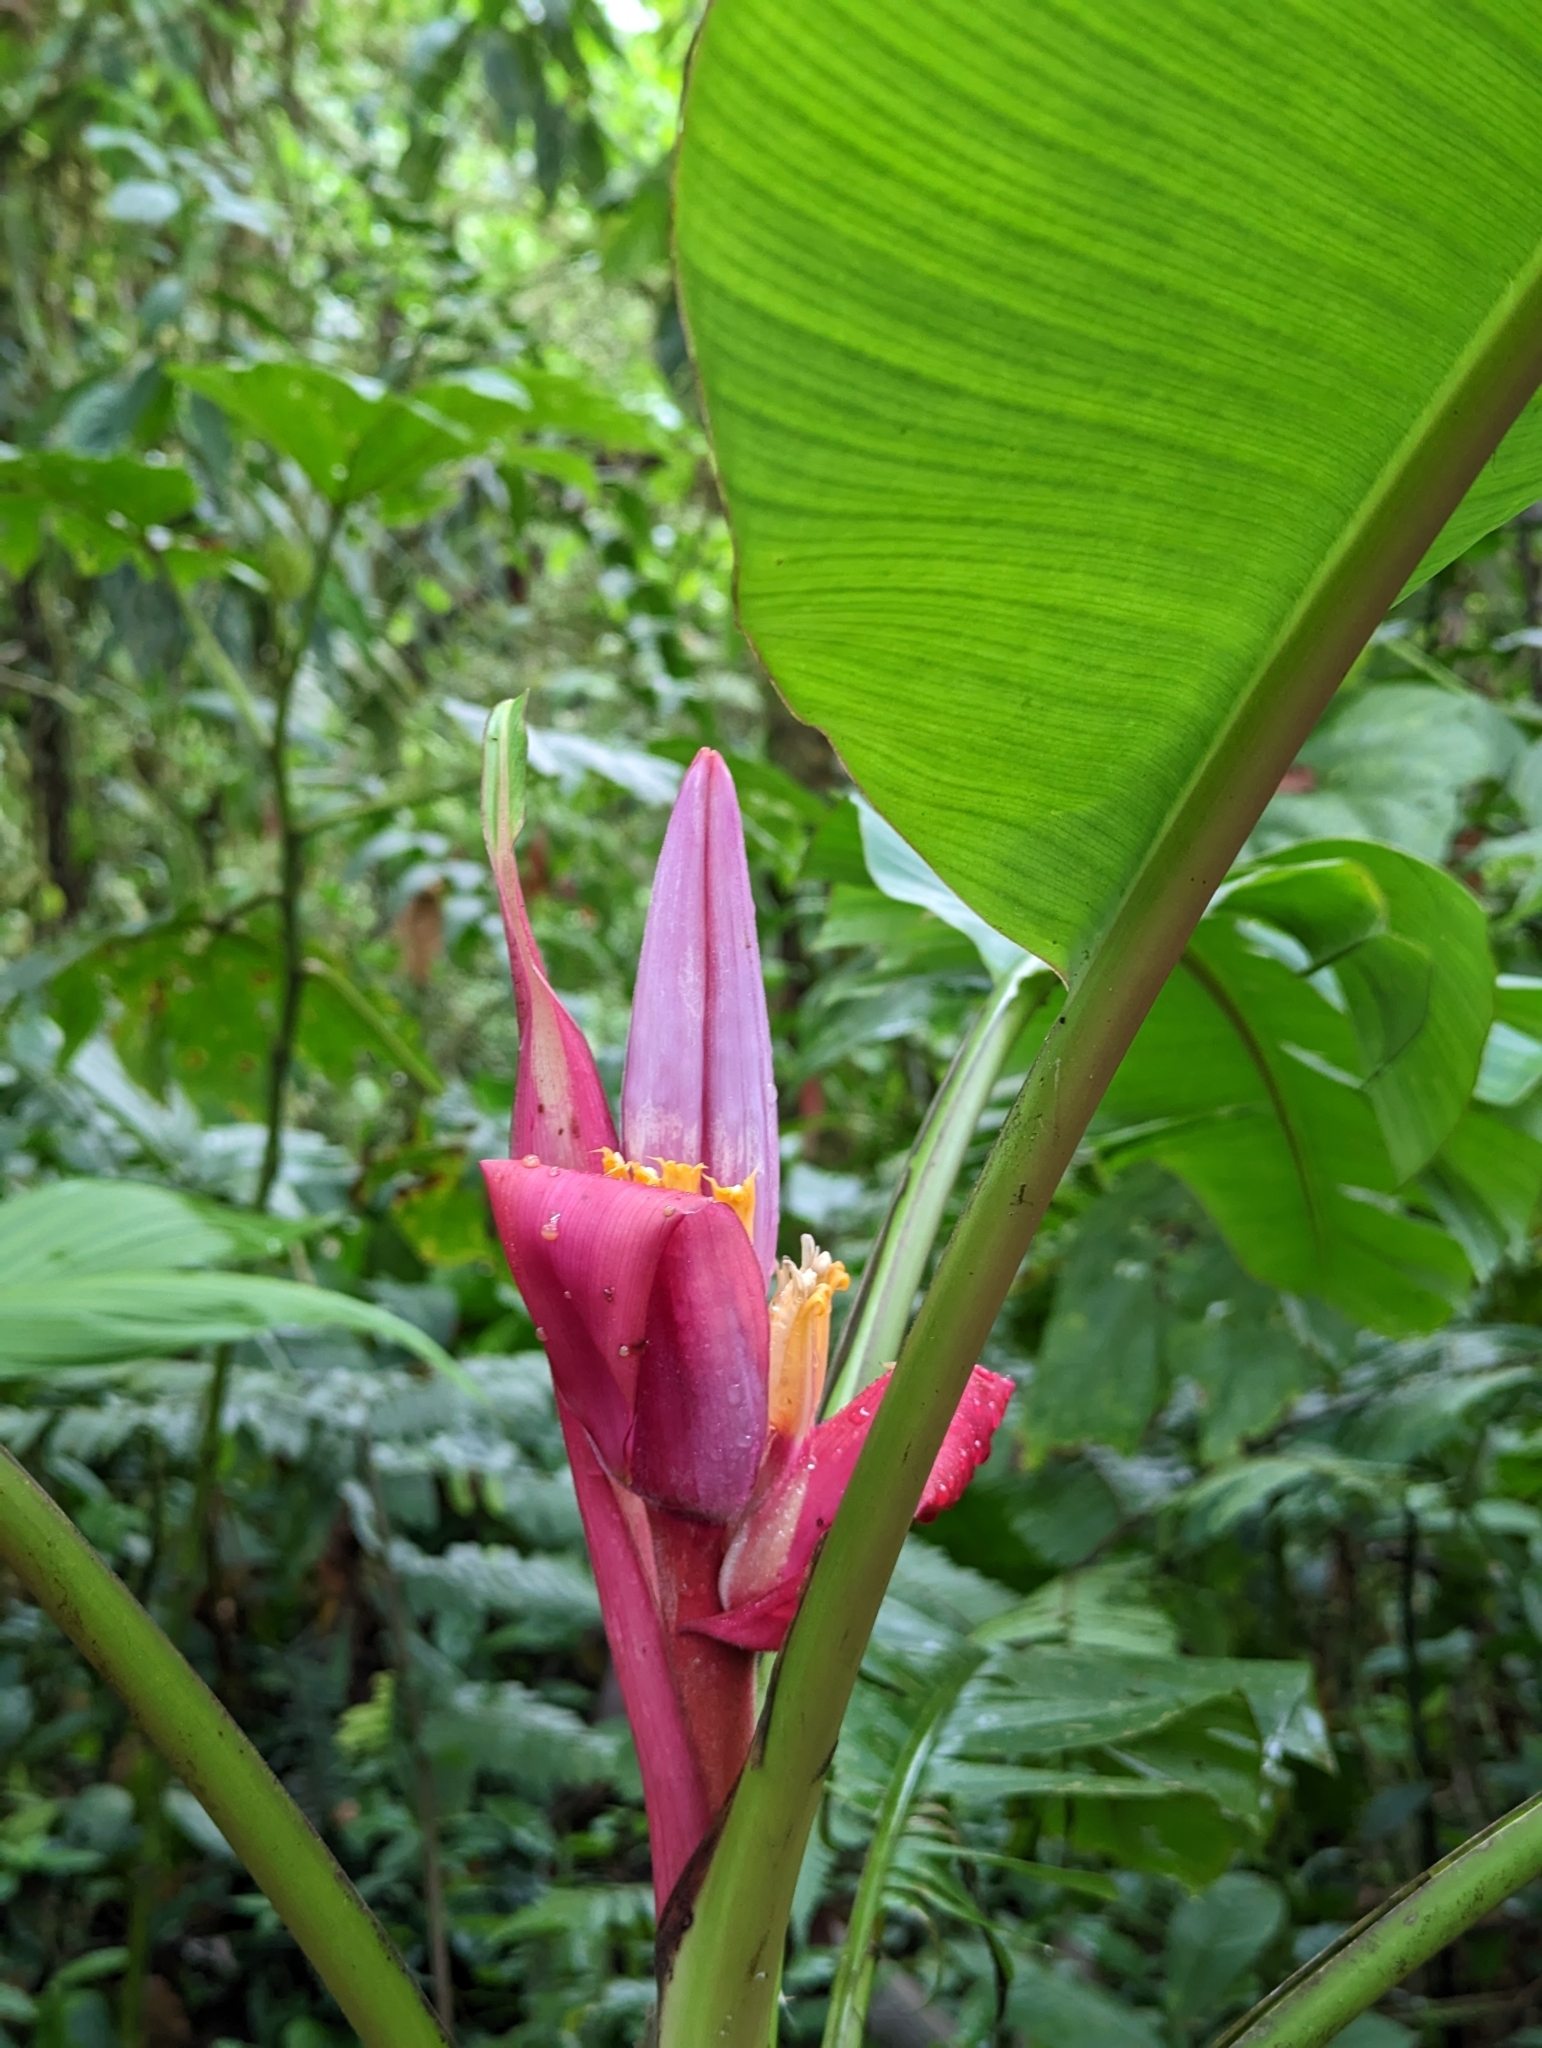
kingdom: Plantae
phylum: Tracheophyta
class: Liliopsida
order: Zingiberales
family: Musaceae
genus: Musa
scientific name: Musa velutina
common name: Pink velvet banana
